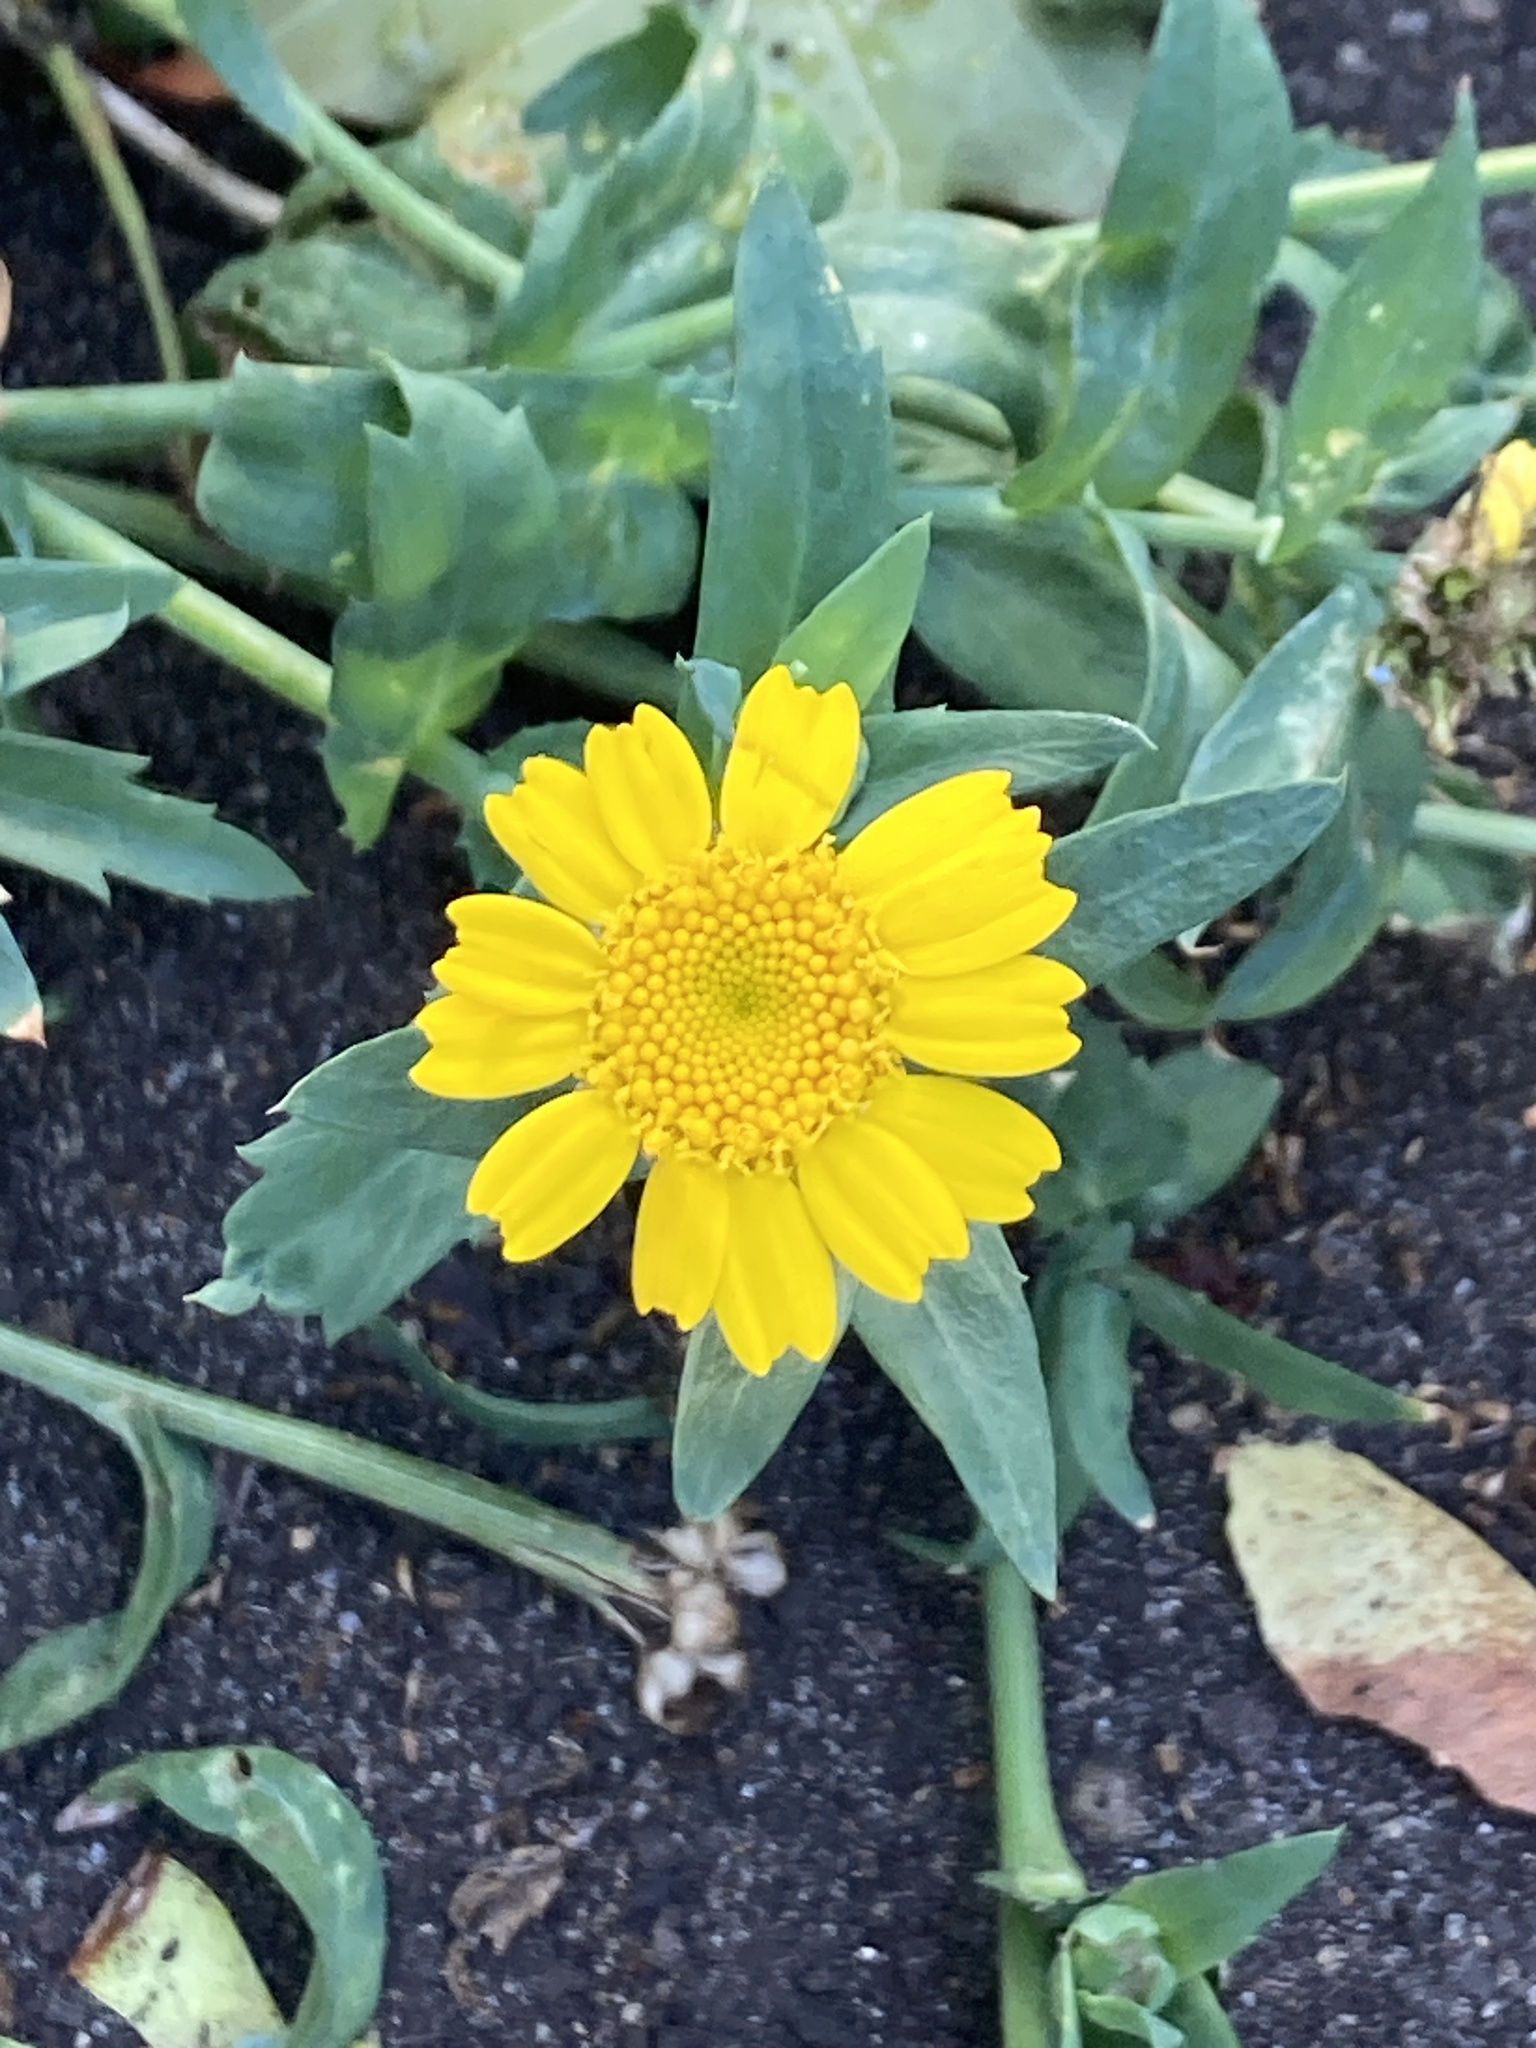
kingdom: Plantae
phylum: Tracheophyta
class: Magnoliopsida
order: Asterales
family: Asteraceae
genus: Glebionis
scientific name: Glebionis segetum
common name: Corndaisy
